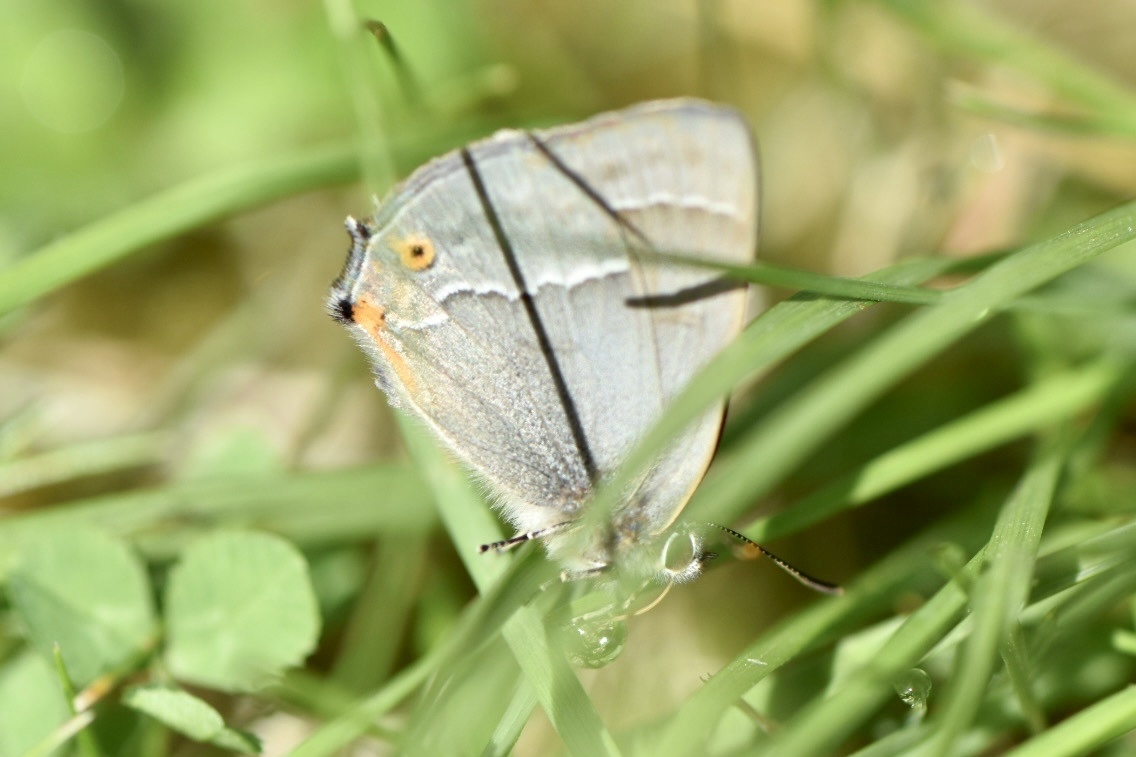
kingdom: Animalia
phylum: Arthropoda
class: Insecta
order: Lepidoptera
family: Lycaenidae
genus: Quercusia
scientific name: Quercusia quercus
